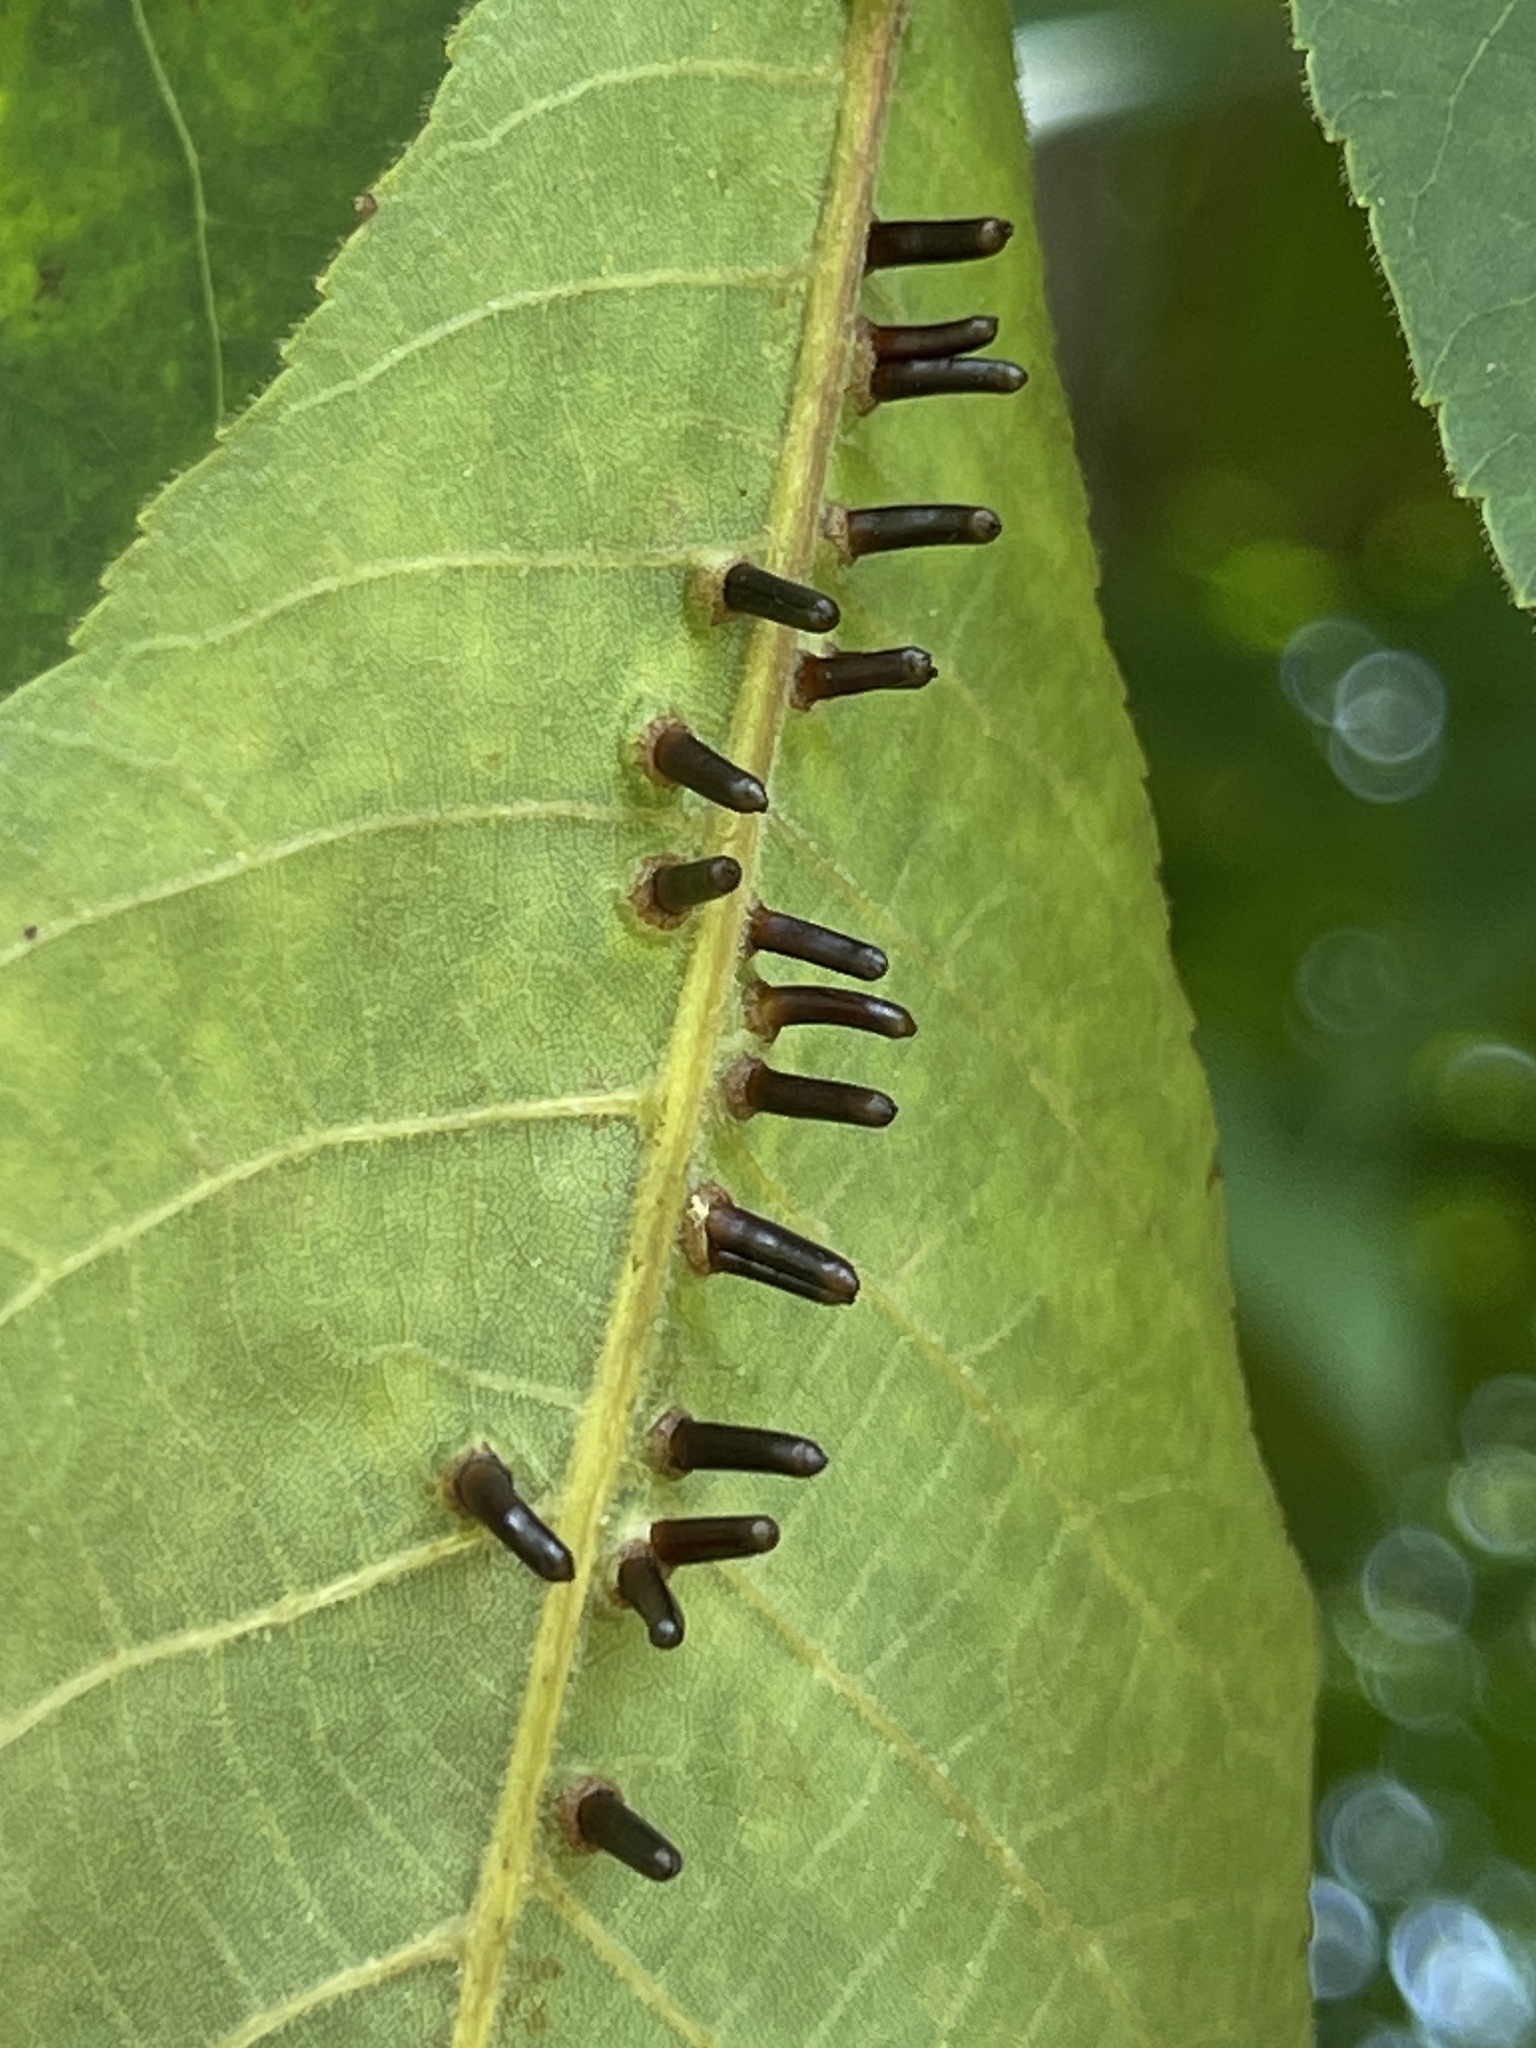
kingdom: Animalia
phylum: Arthropoda
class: Insecta
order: Diptera
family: Cecidomyiidae
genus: Caryomyia
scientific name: Caryomyia tubicola
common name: Hickory bullet gall midge
